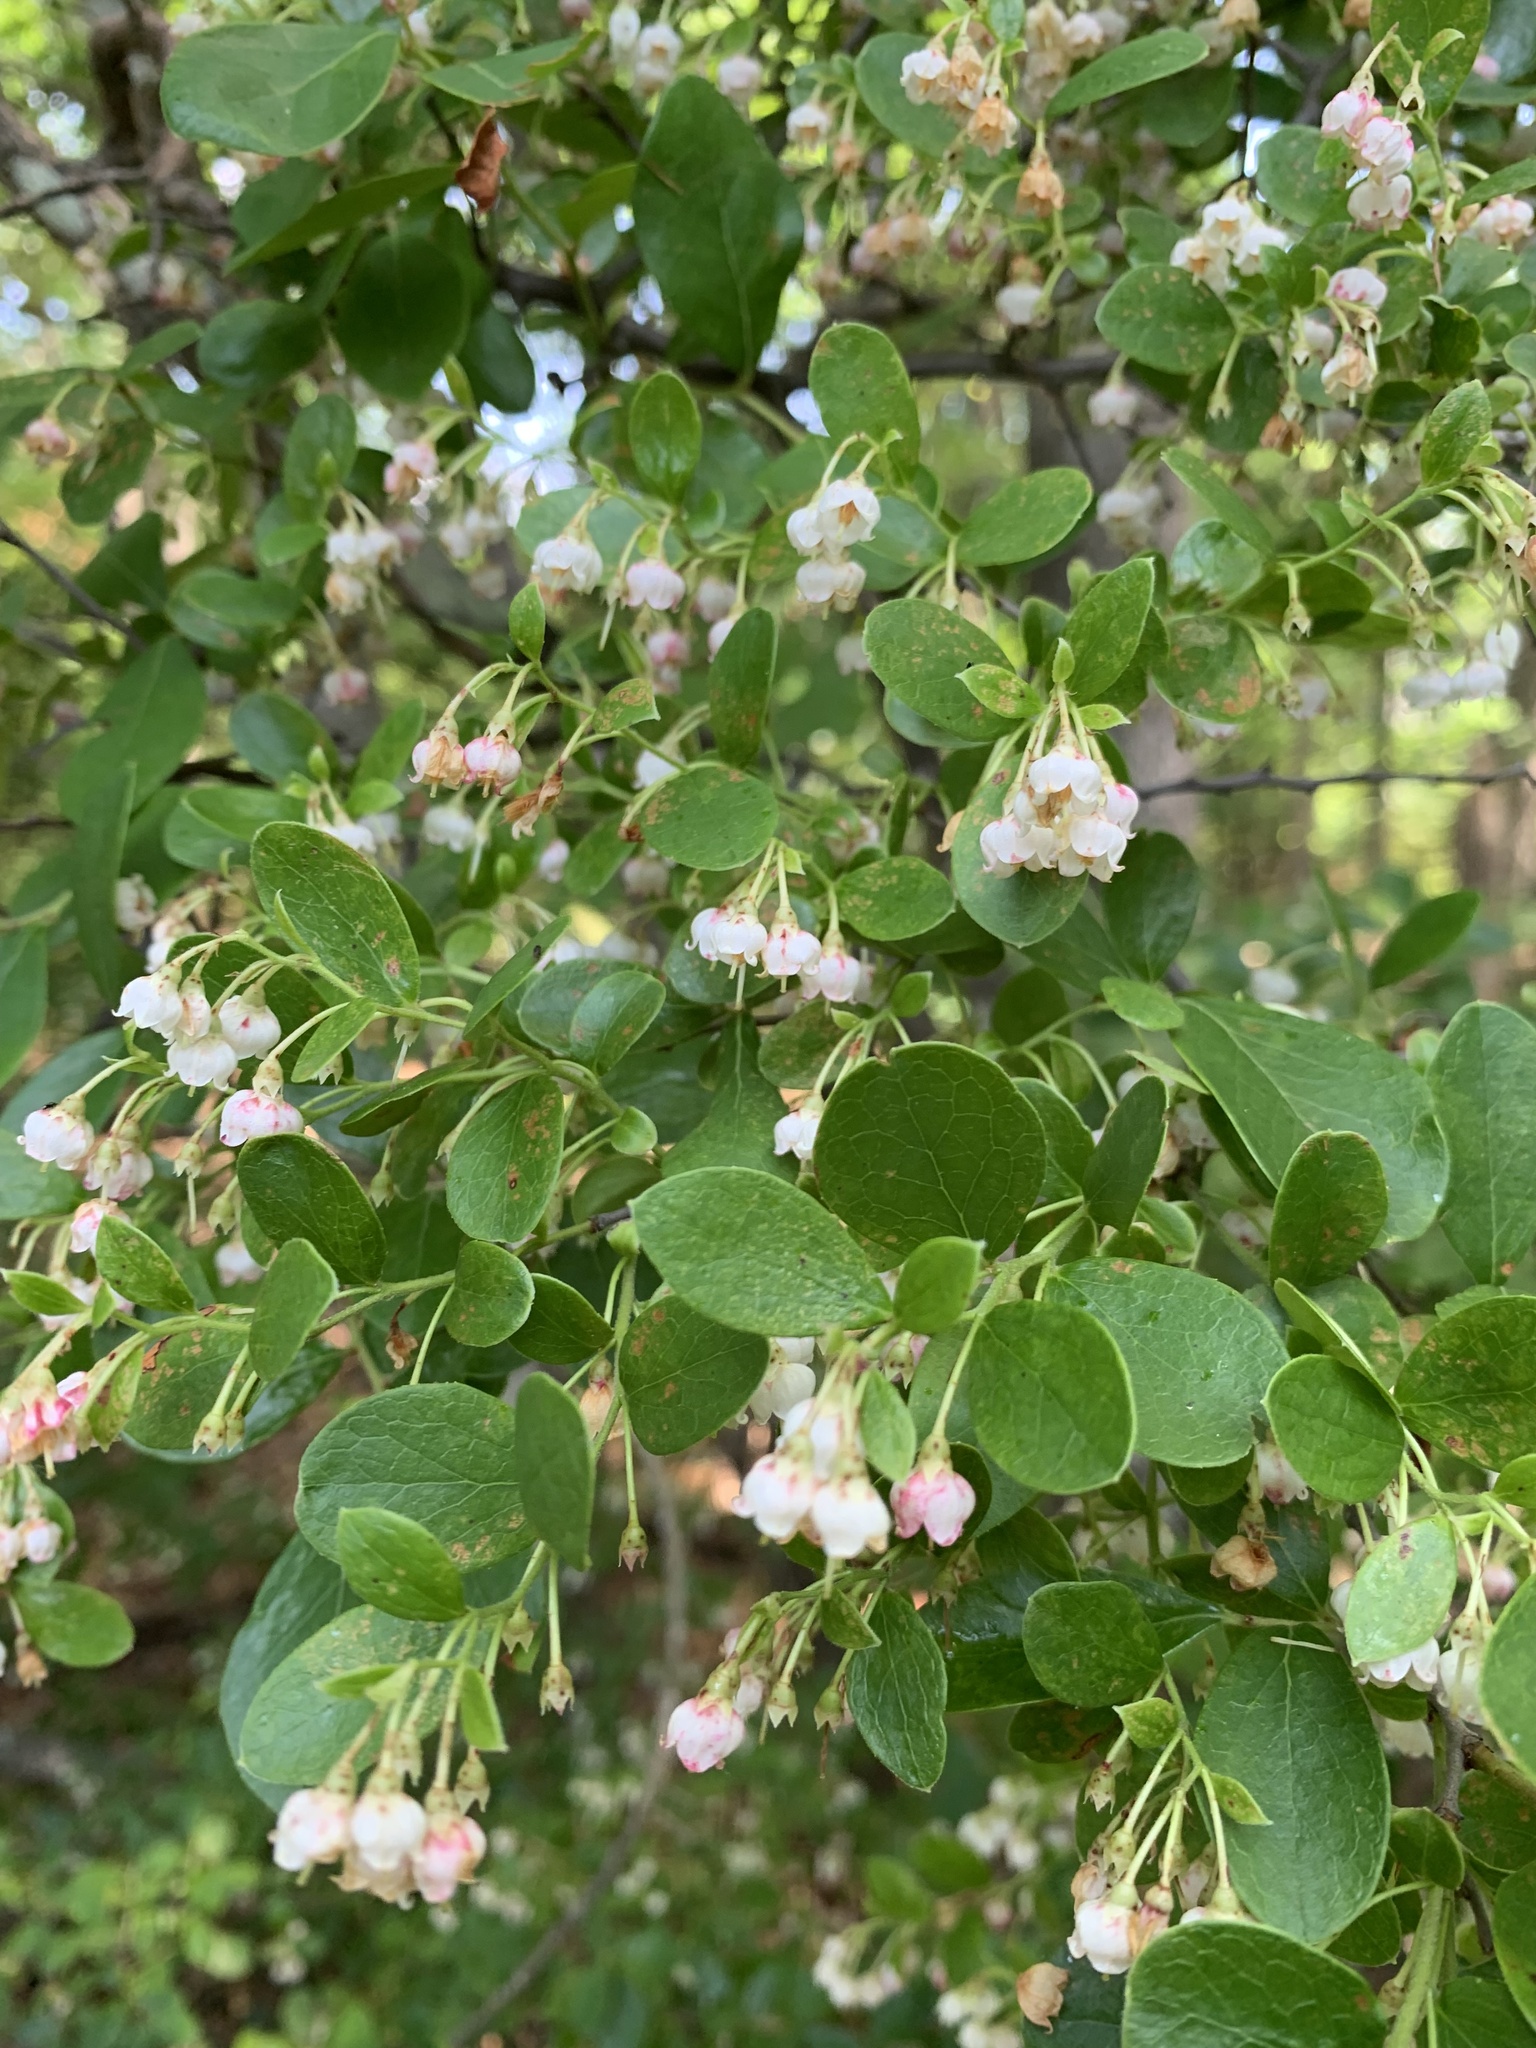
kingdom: Plantae
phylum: Tracheophyta
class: Magnoliopsida
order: Ericales
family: Ericaceae
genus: Vaccinium
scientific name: Vaccinium arboreum
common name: Farkleberry
